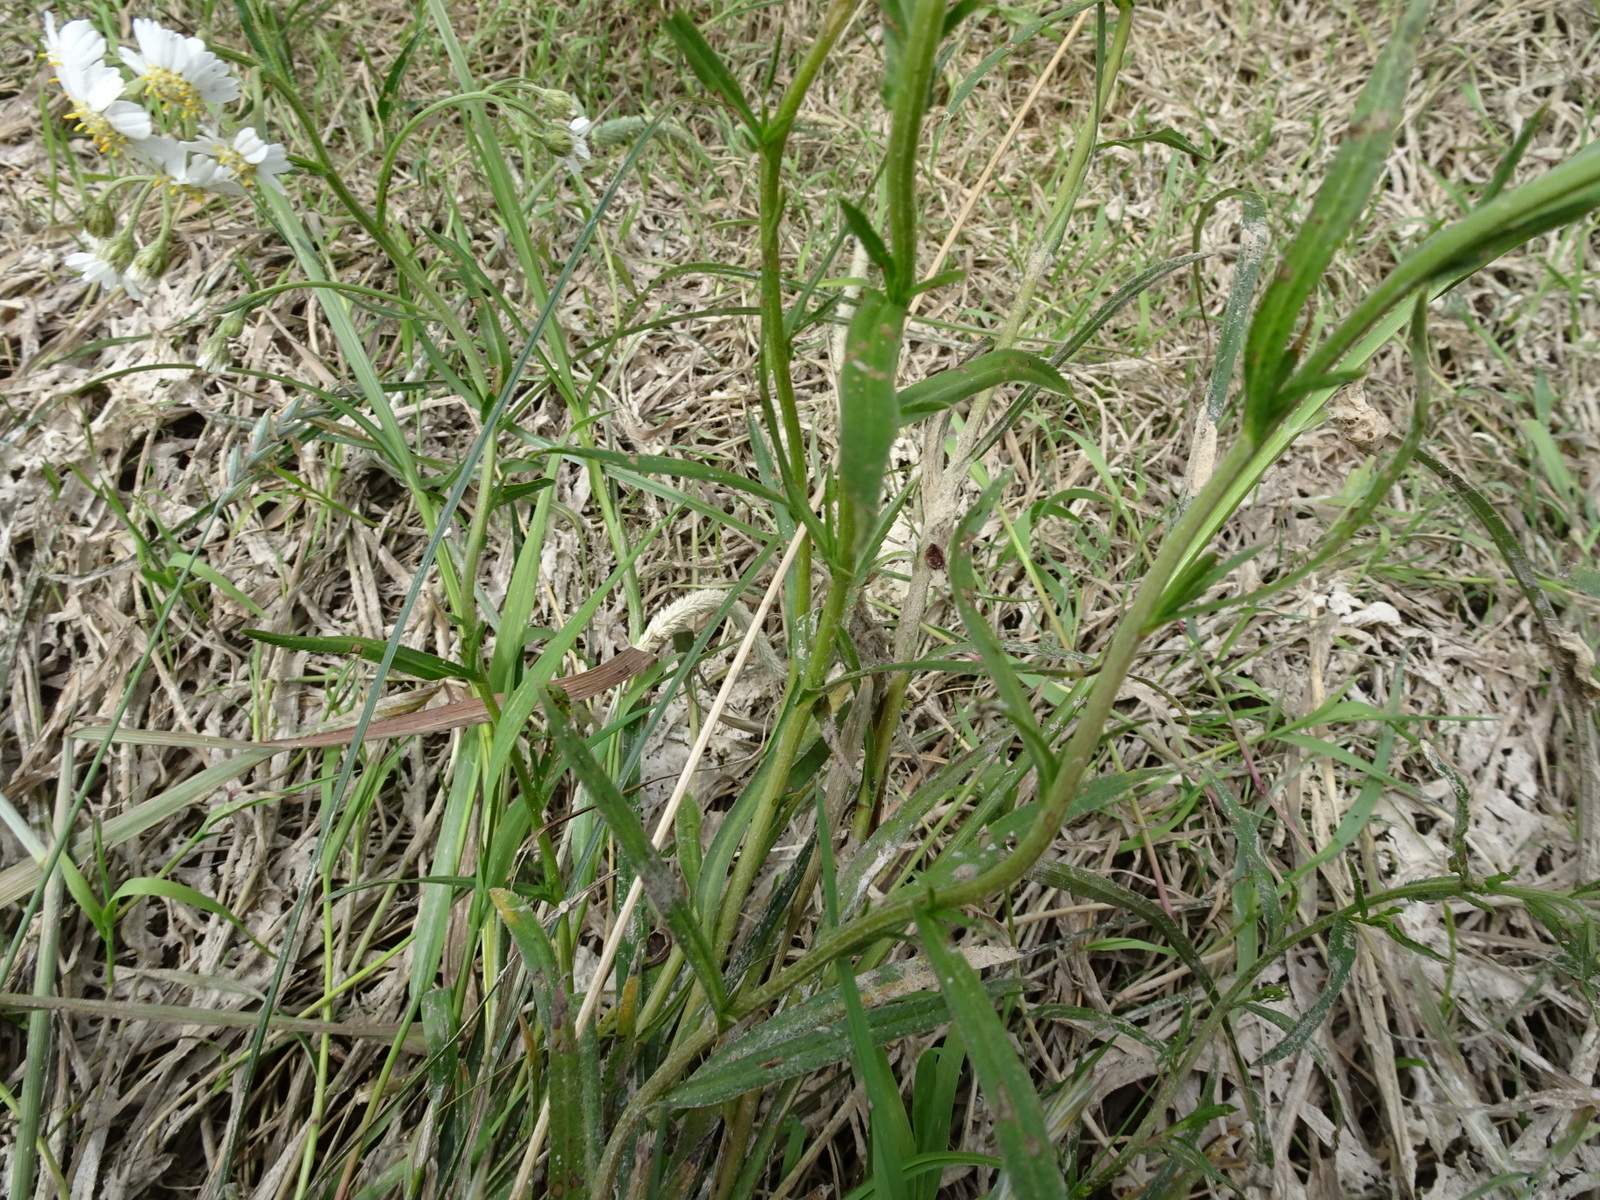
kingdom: Plantae
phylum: Tracheophyta
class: Magnoliopsida
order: Asterales
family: Asteraceae
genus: Achillea
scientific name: Achillea ptarmica
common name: Sneezeweed
